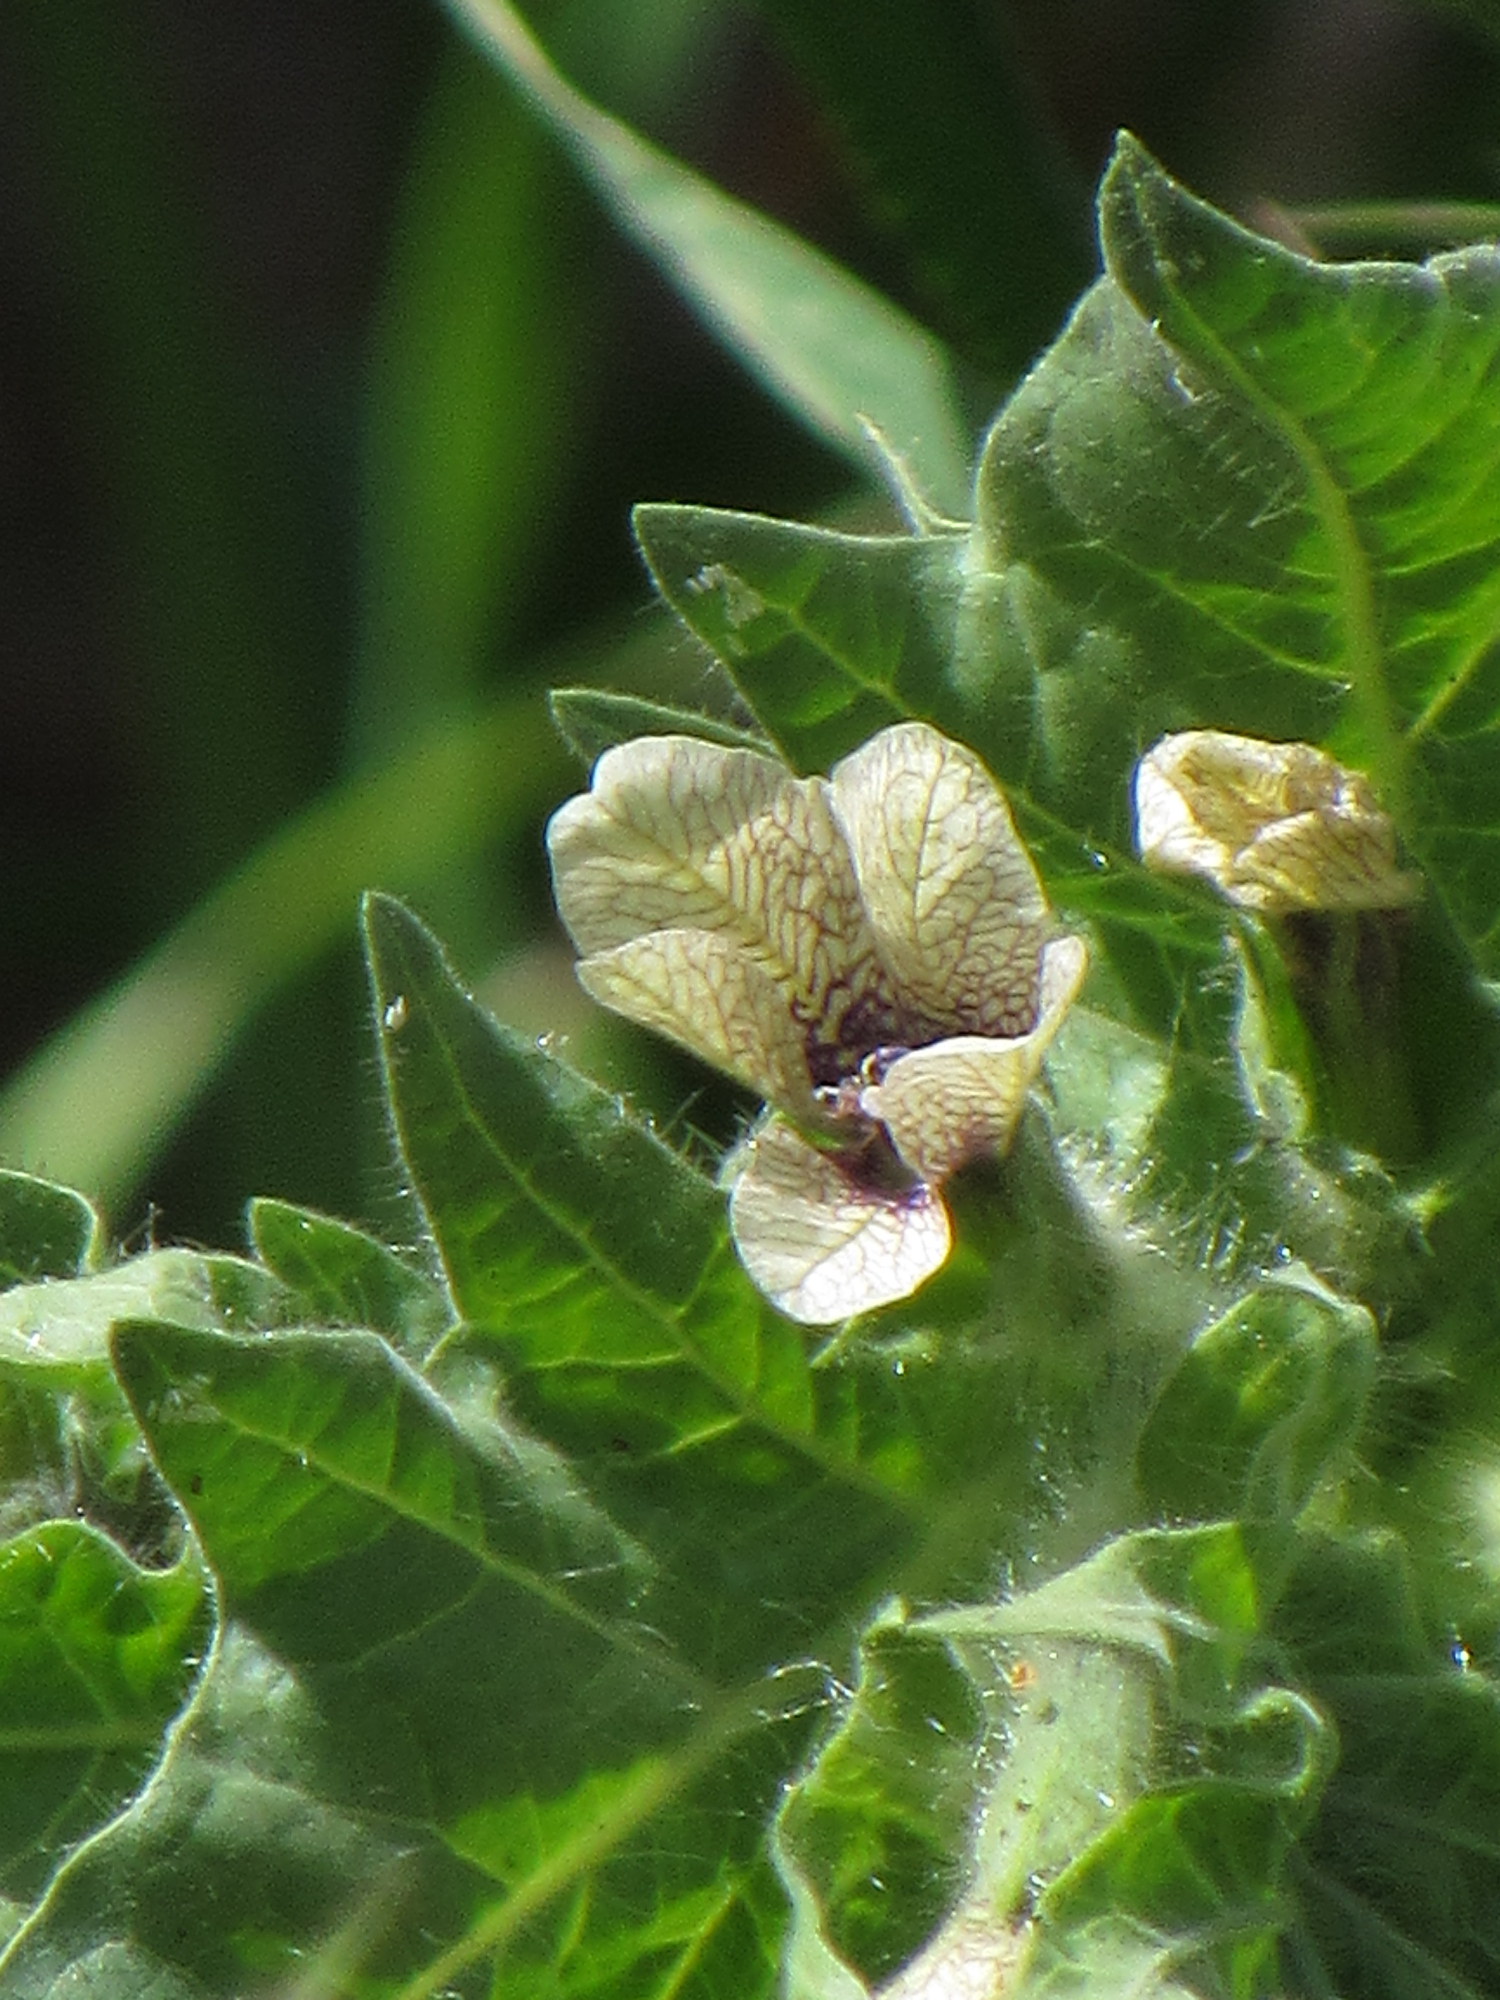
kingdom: Plantae
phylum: Tracheophyta
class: Magnoliopsida
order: Solanales
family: Solanaceae
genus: Hyoscyamus
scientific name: Hyoscyamus niger
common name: Henbane
